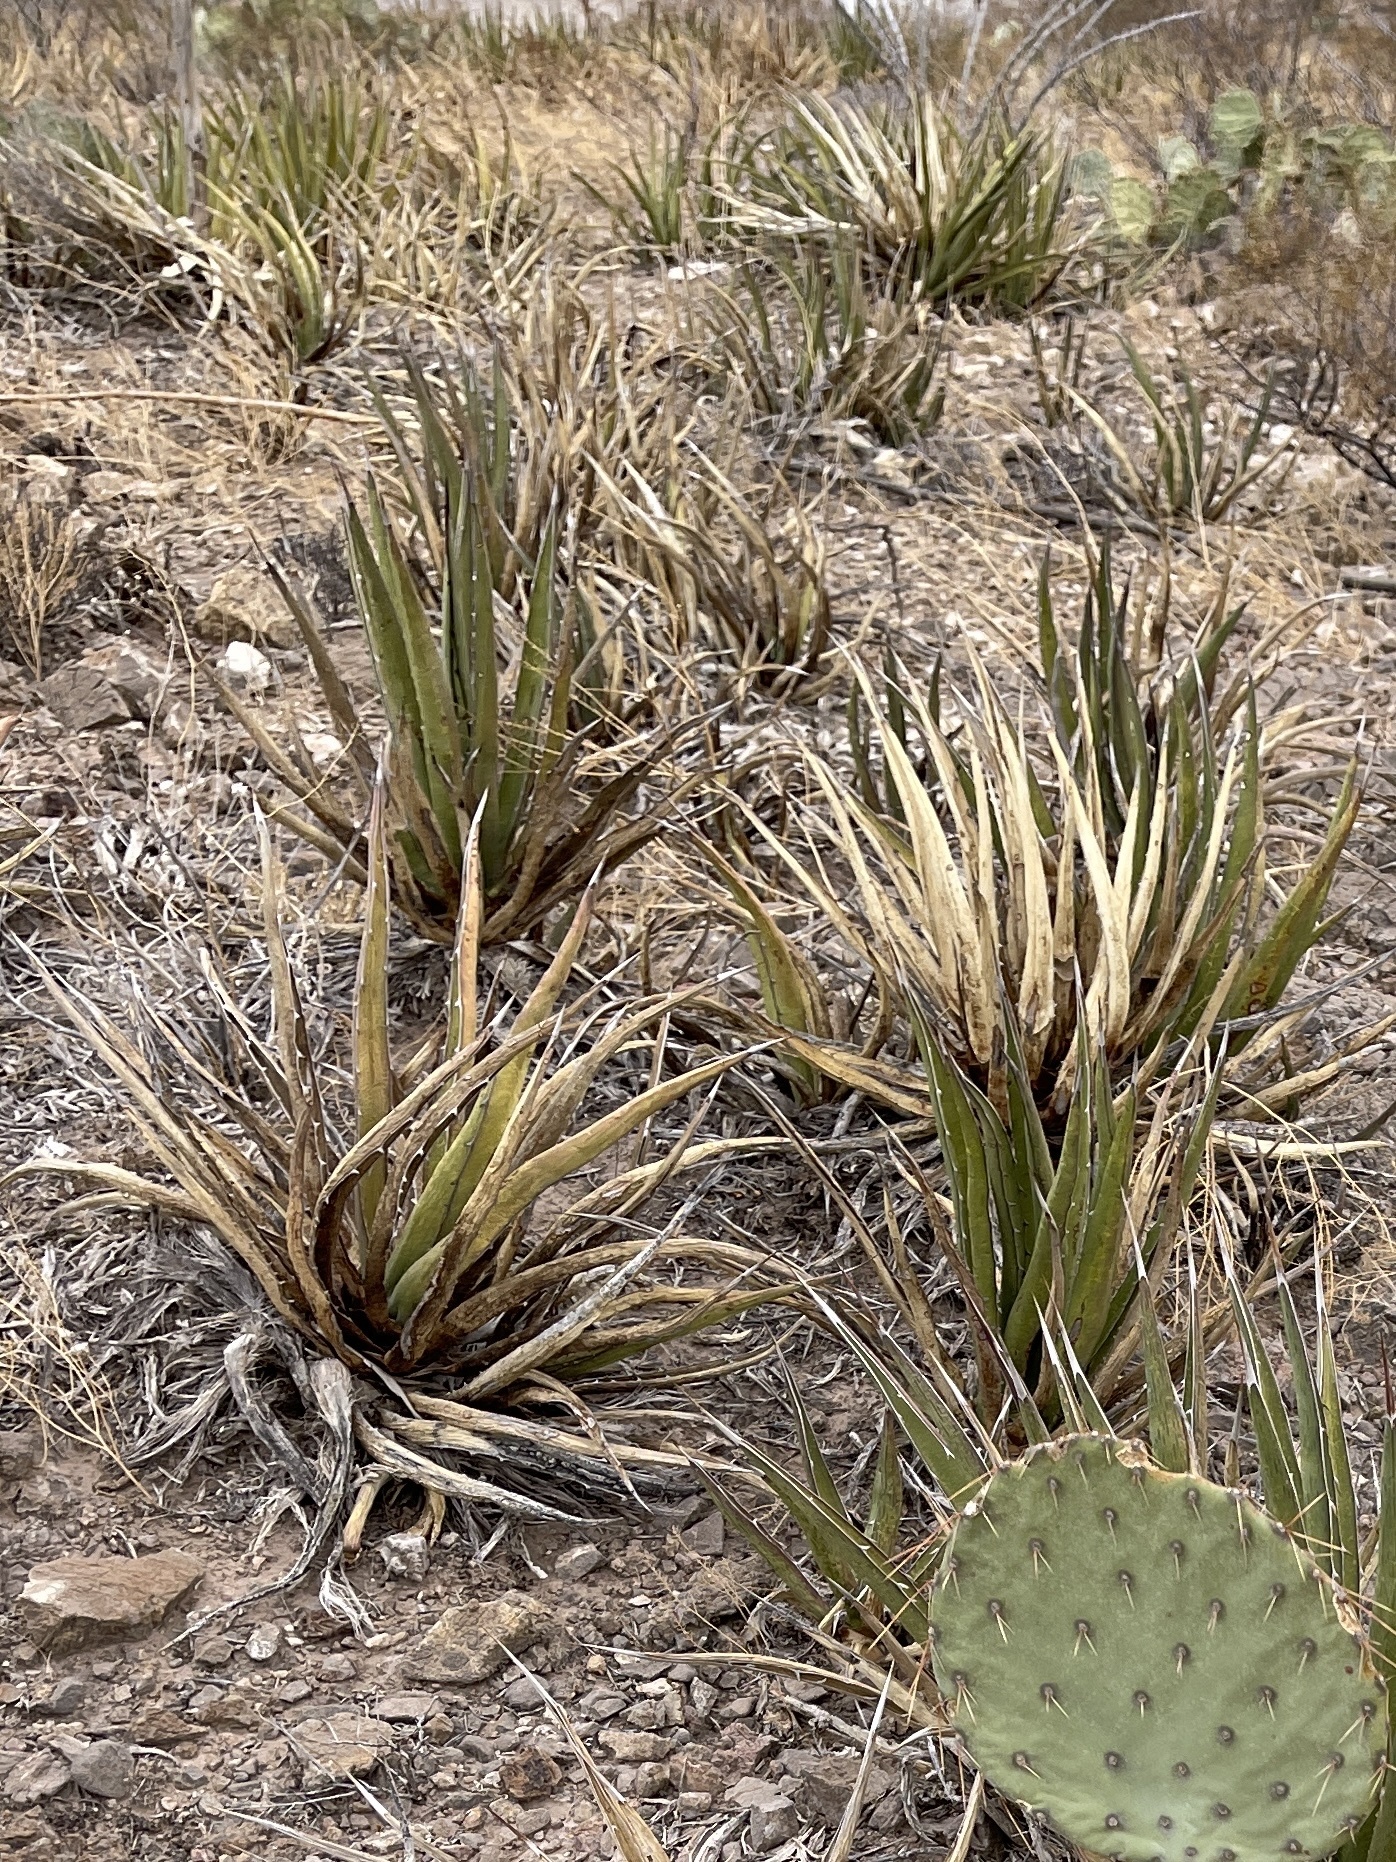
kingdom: Plantae
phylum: Tracheophyta
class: Liliopsida
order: Asparagales
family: Asparagaceae
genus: Agave
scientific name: Agave lechuguilla
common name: Lecheguilla agave
